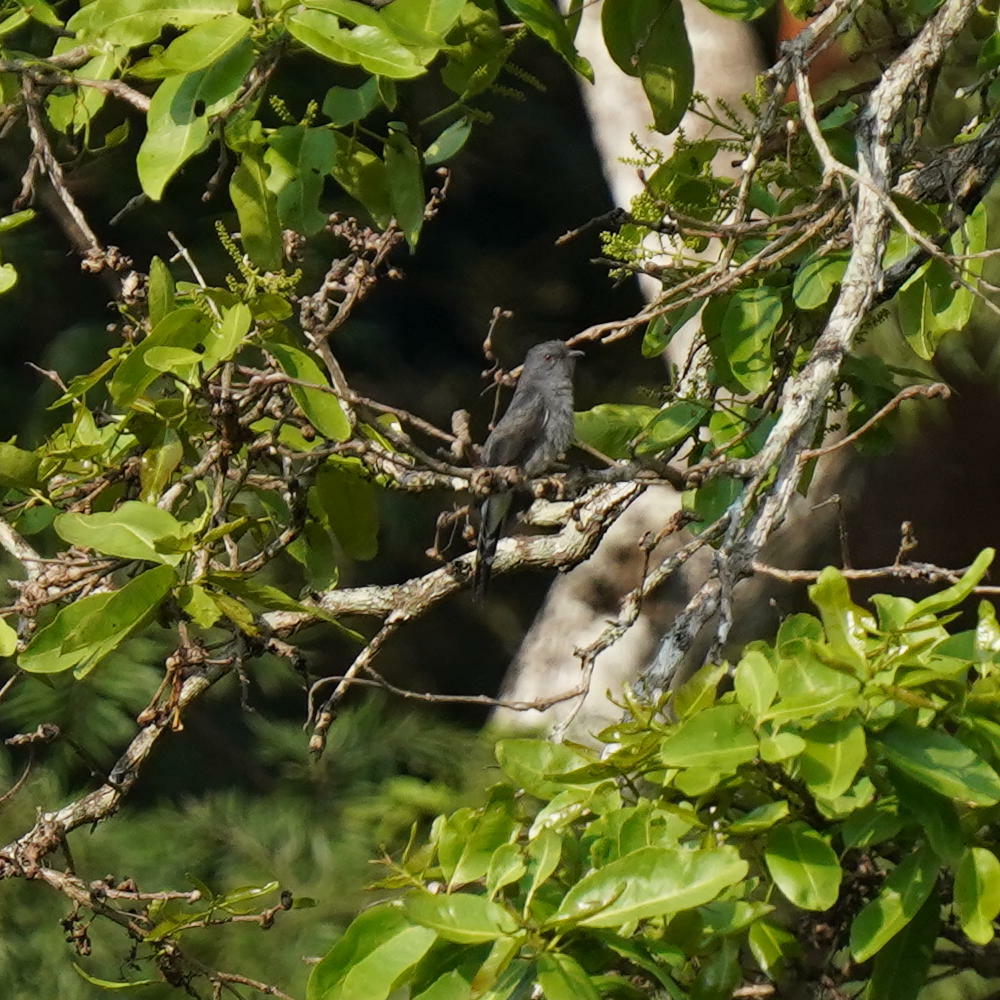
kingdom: Animalia
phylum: Chordata
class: Aves
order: Cuculiformes
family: Cuculidae
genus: Cacomantis
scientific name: Cacomantis passerinus
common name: Grey-bellied cuckoo
